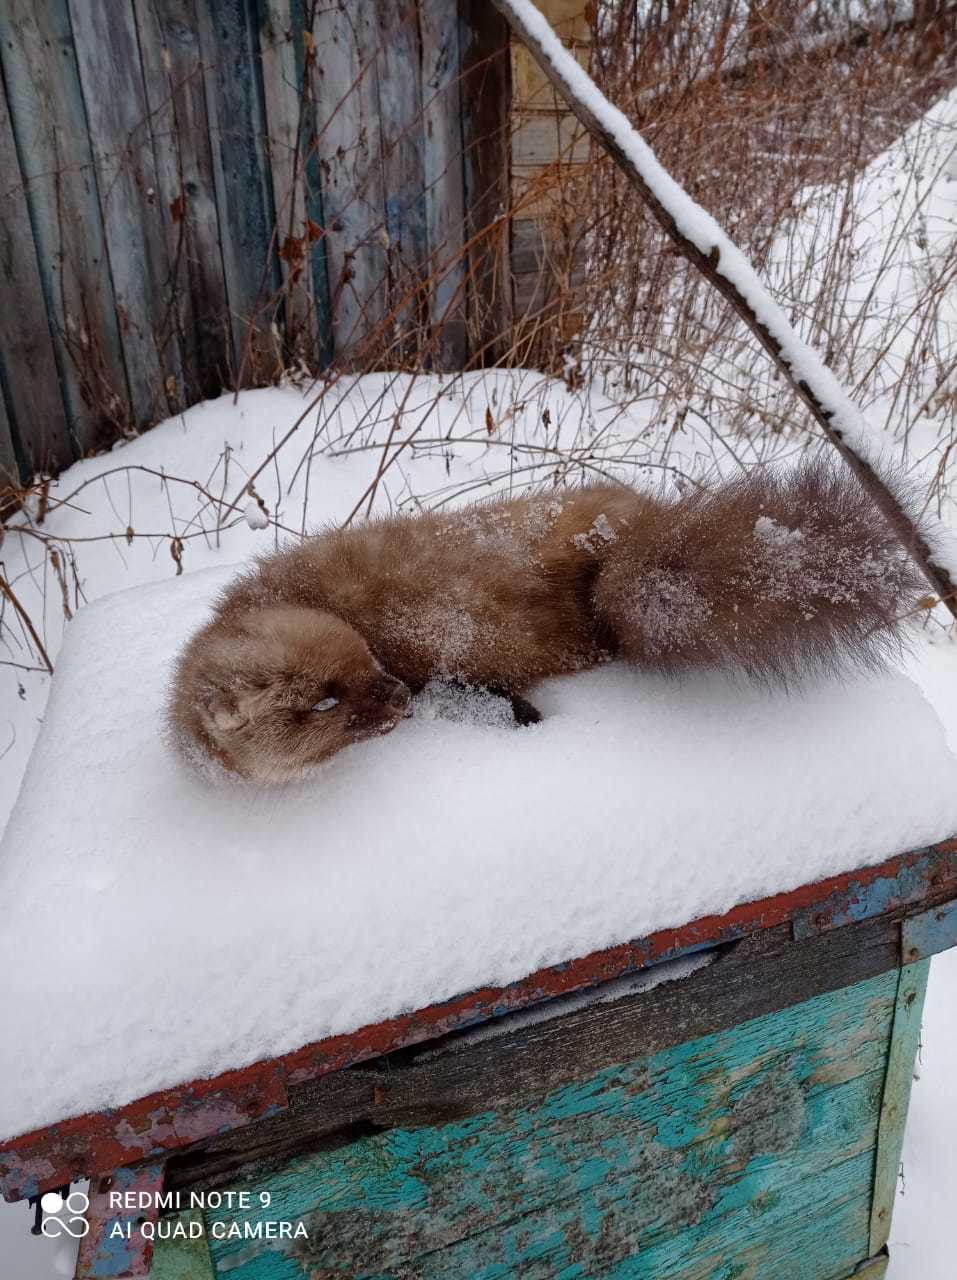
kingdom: Animalia
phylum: Chordata
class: Mammalia
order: Carnivora
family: Mustelidae
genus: Martes
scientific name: Martes
